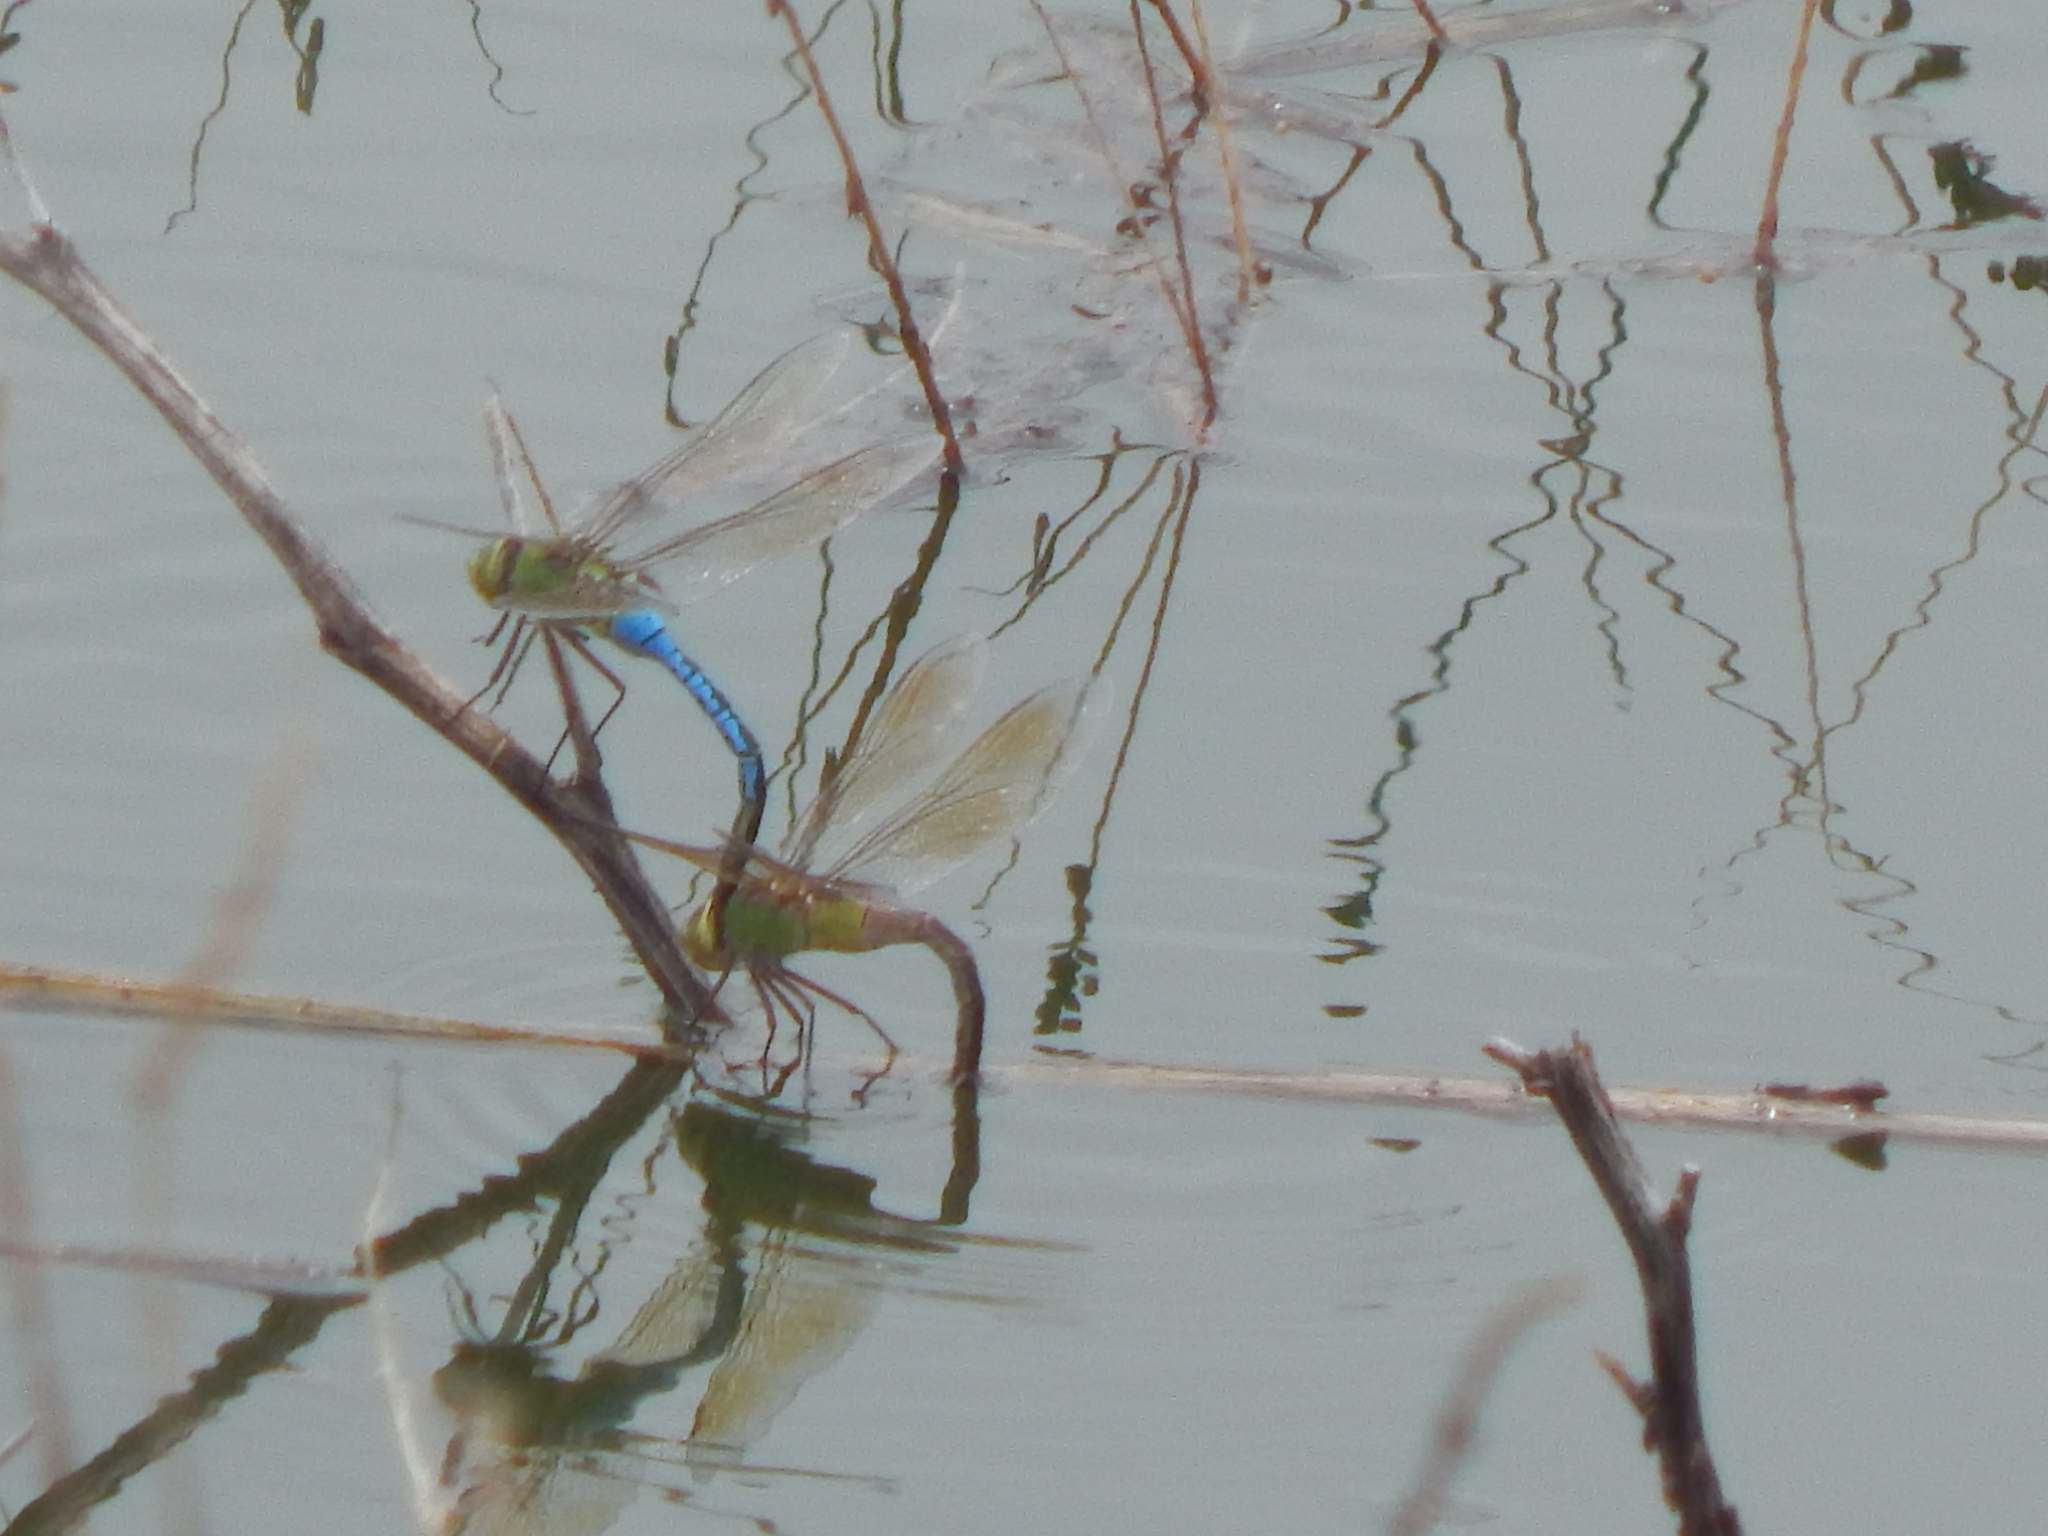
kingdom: Animalia
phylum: Arthropoda
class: Insecta
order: Odonata
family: Aeshnidae
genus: Anax
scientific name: Anax junius
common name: Common green darner
